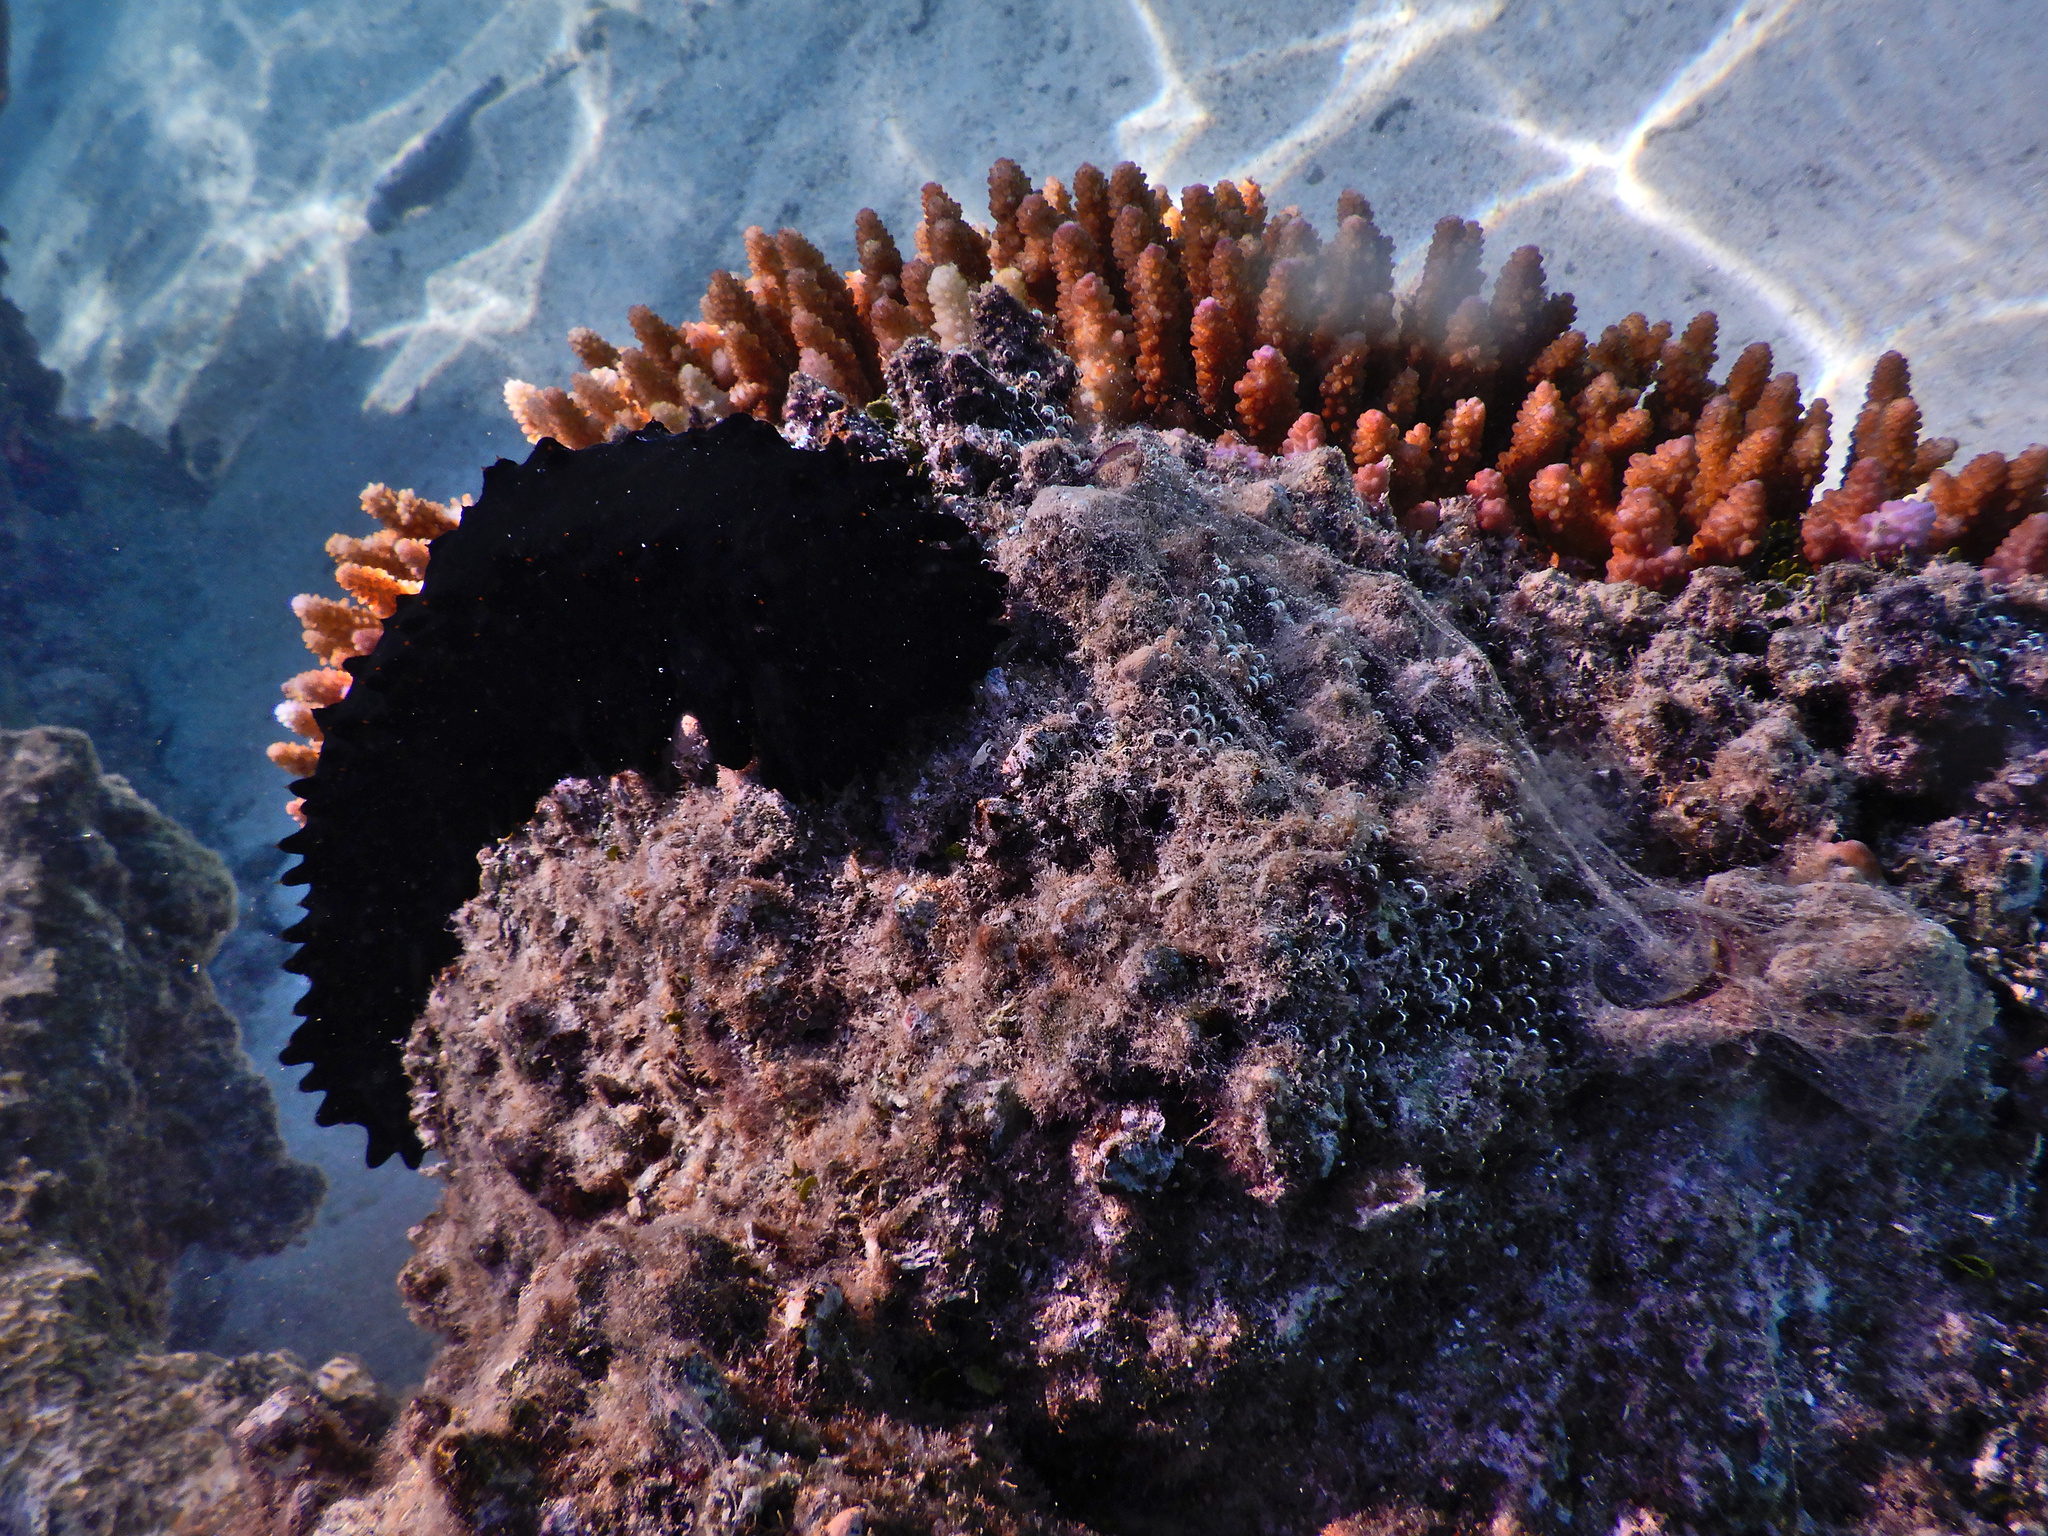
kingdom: Animalia
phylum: Echinodermata
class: Holothuroidea
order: Synallactida
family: Stichopodidae
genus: Stichopus
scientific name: Stichopus chloronotus
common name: Greenfish
